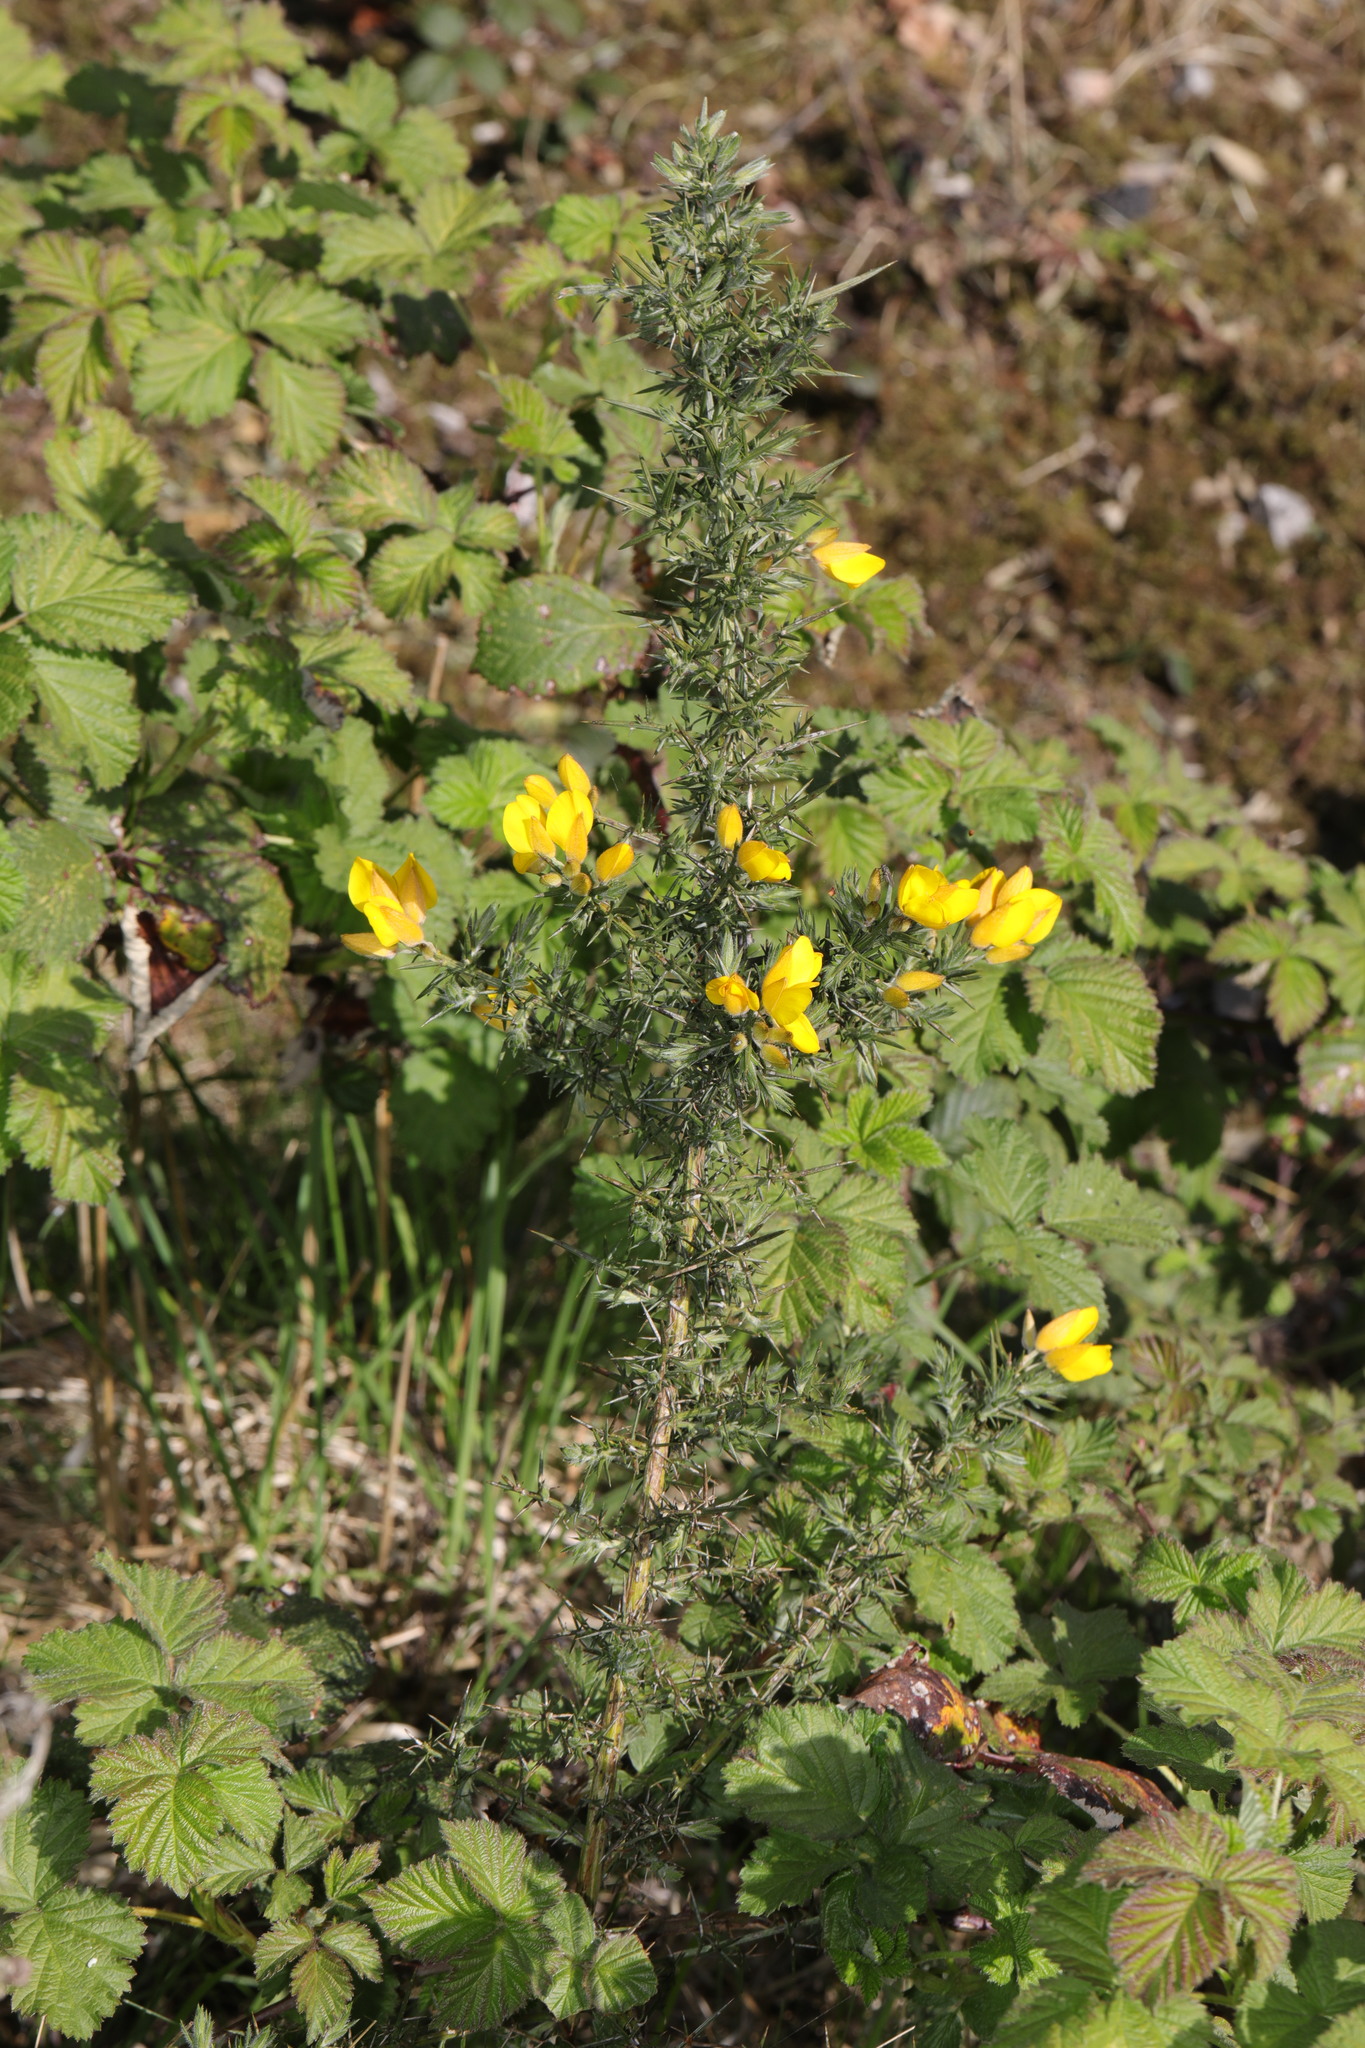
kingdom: Plantae
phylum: Tracheophyta
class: Magnoliopsida
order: Fabales
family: Fabaceae
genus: Ulex
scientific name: Ulex europaeus
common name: Common gorse
